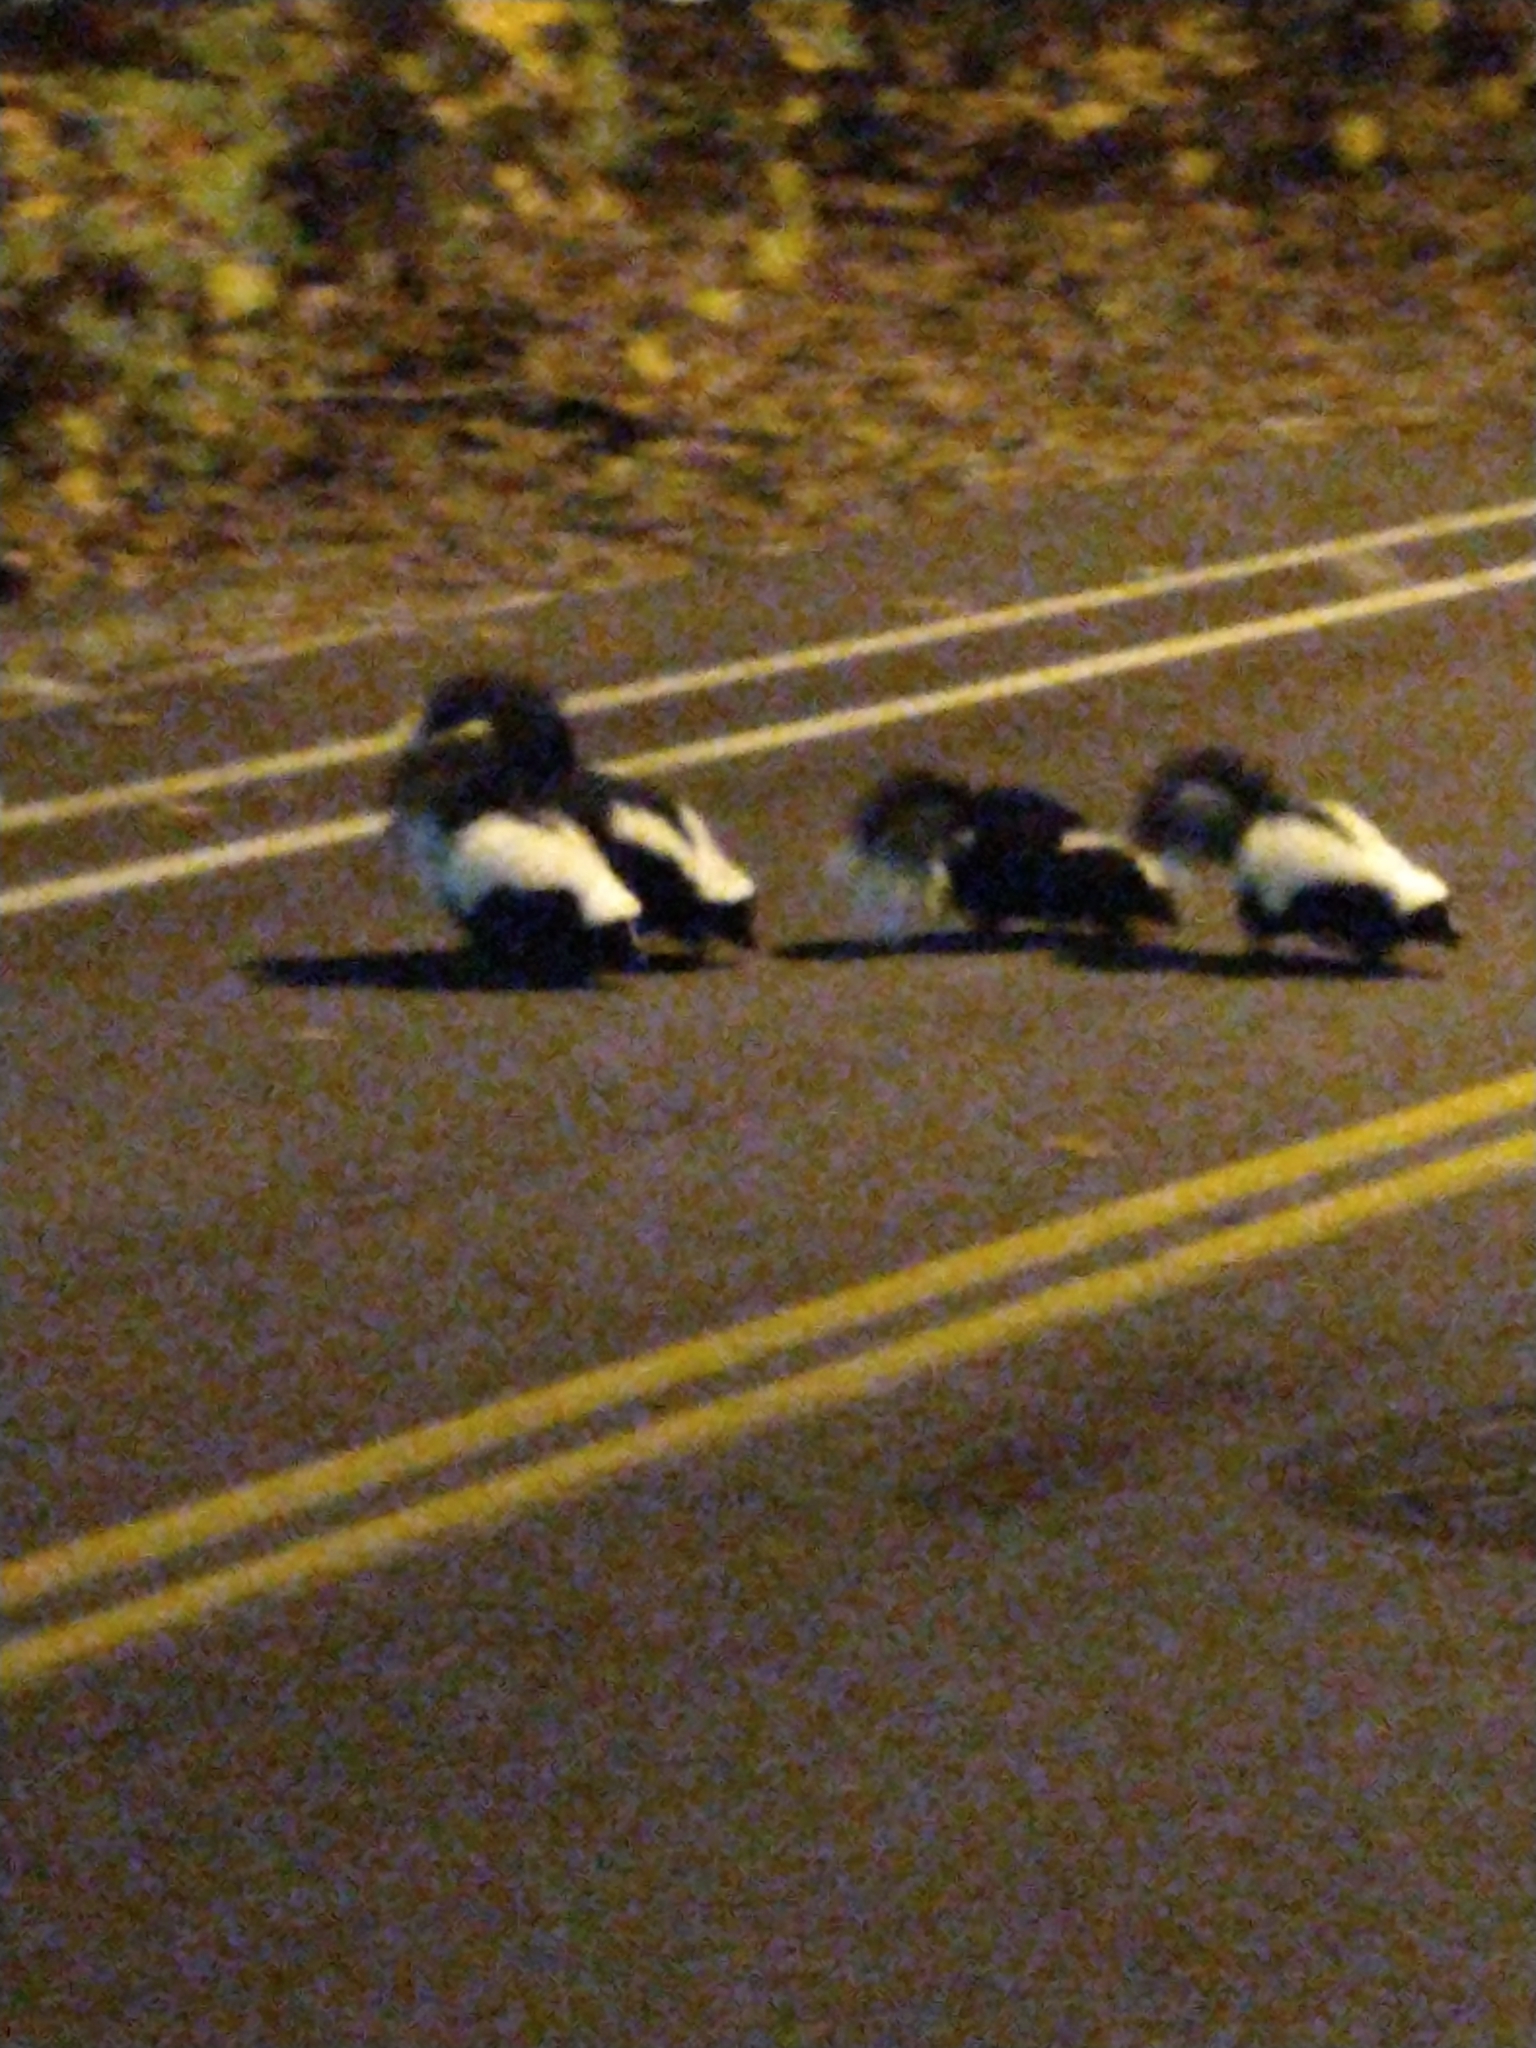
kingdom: Animalia
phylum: Chordata
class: Mammalia
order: Carnivora
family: Mephitidae
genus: Mephitis
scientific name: Mephitis mephitis
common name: Striped skunk
